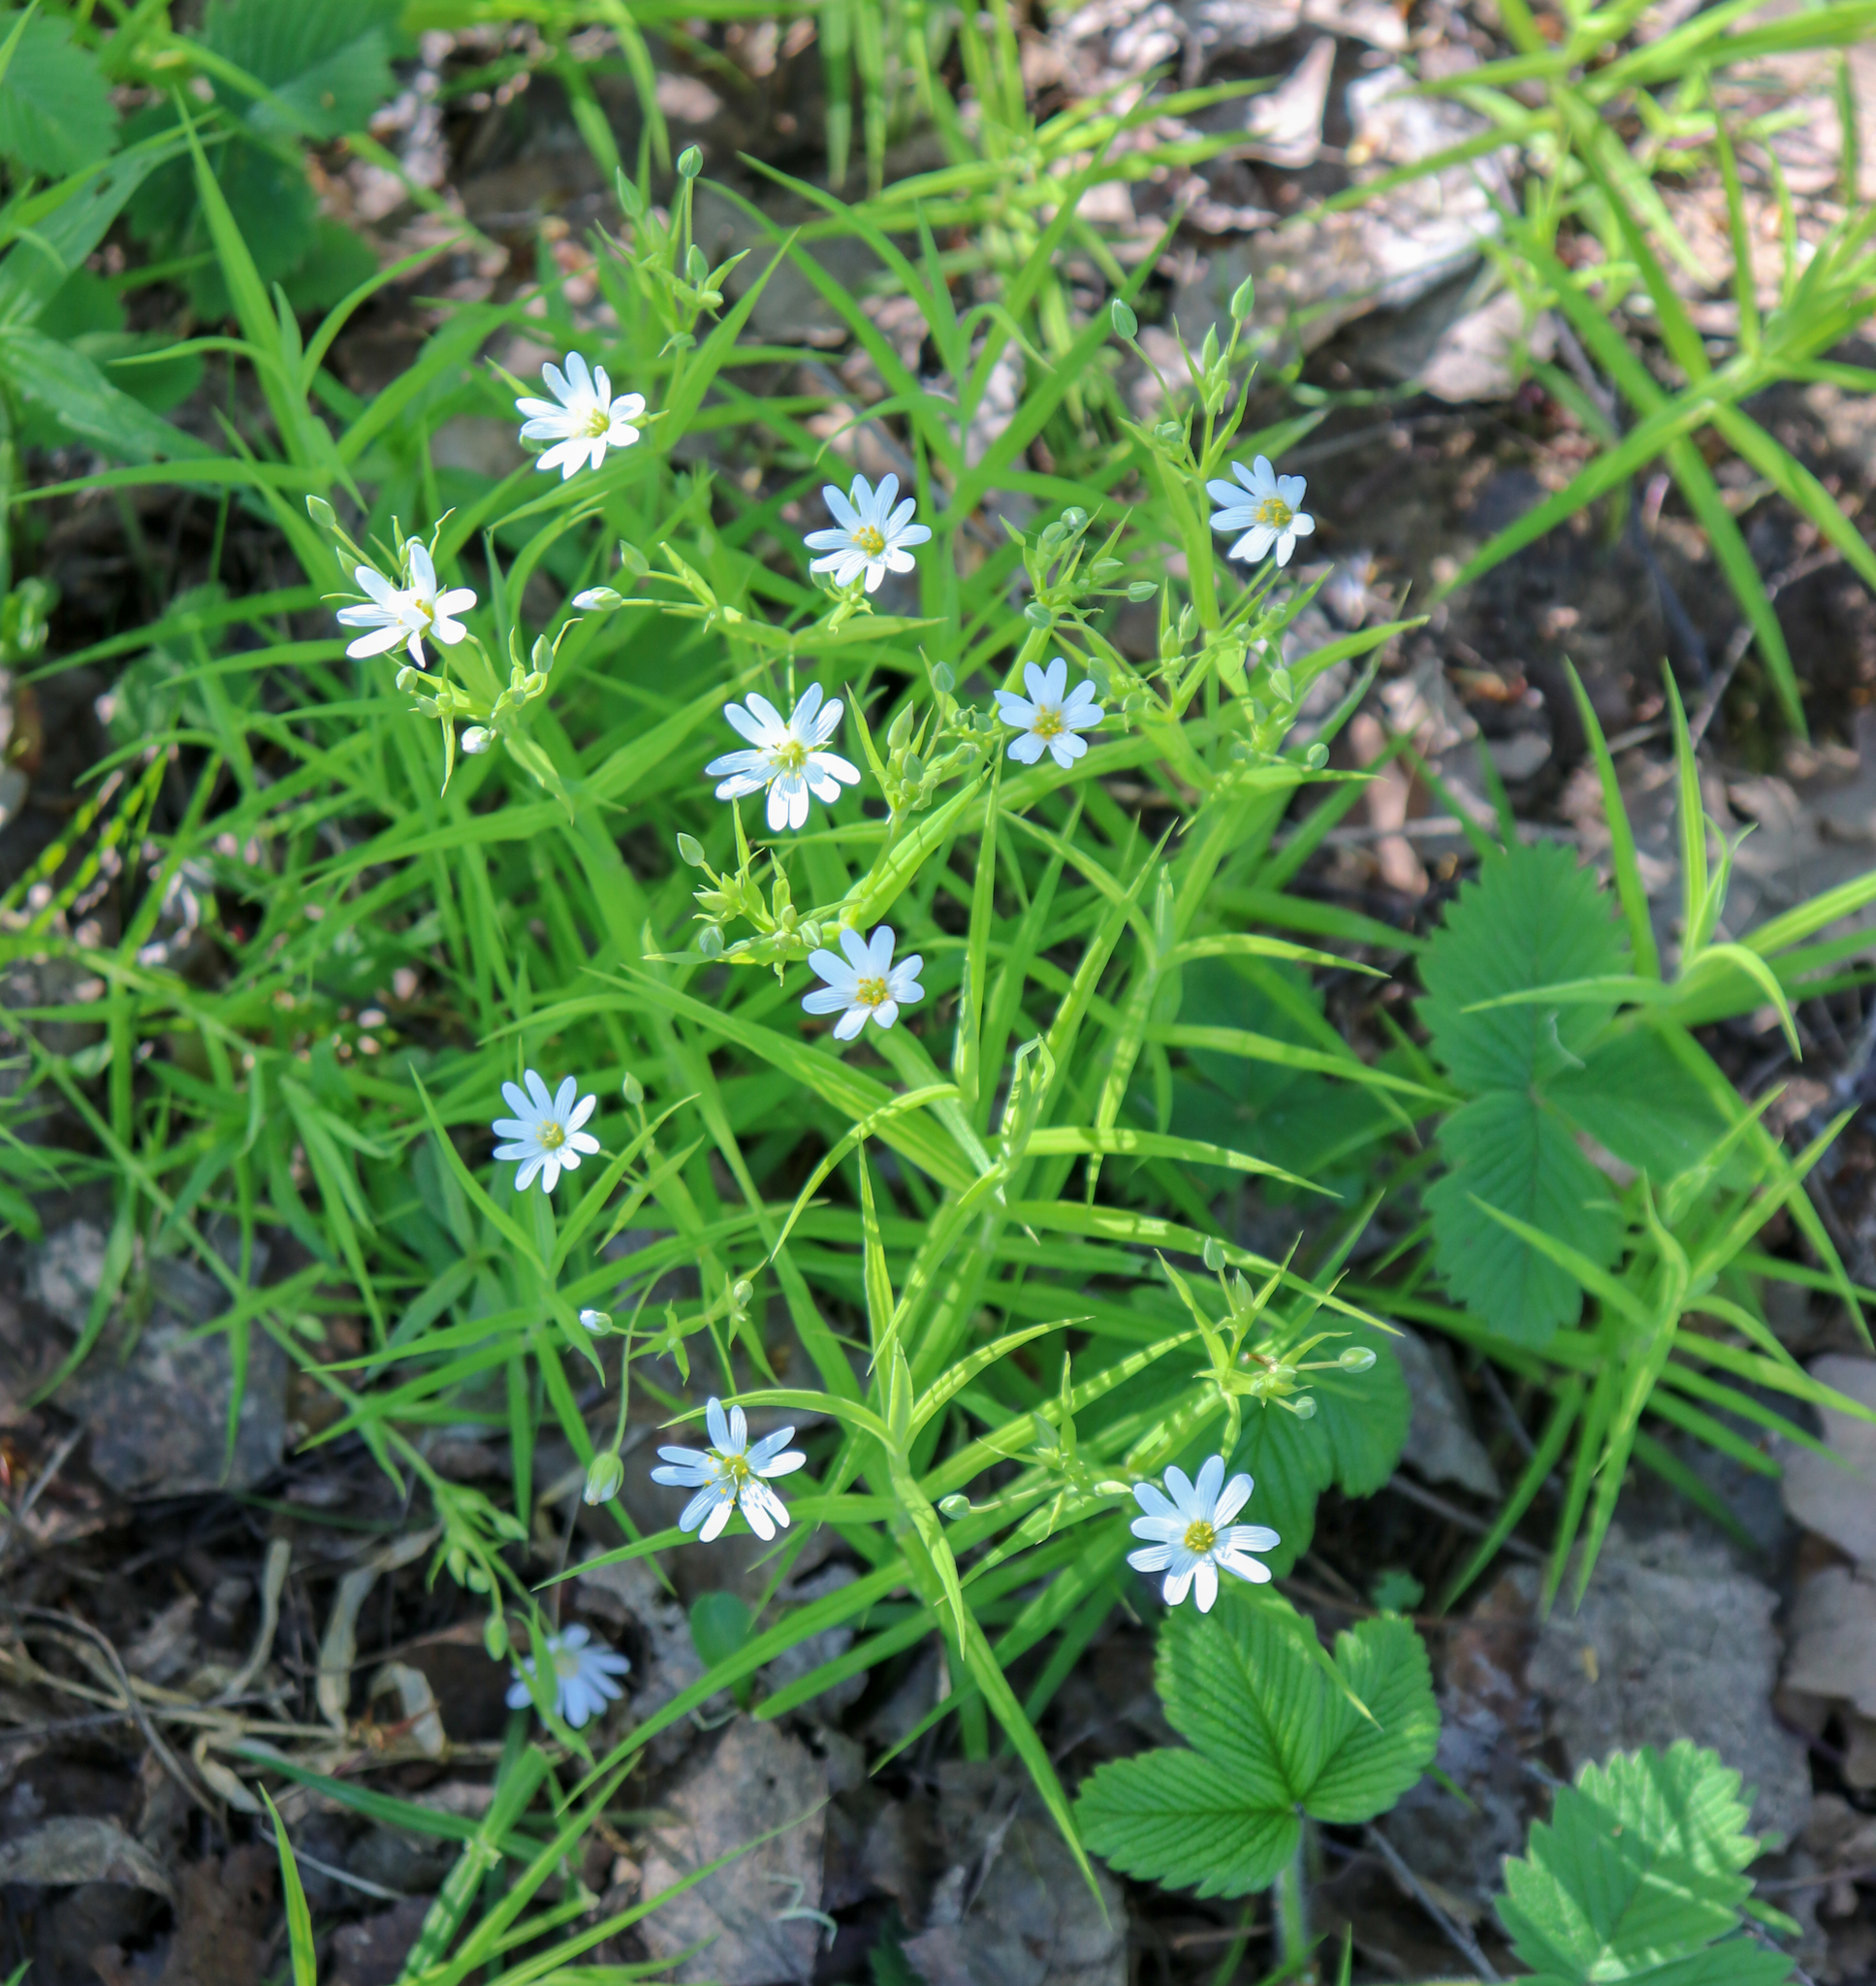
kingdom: Plantae
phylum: Tracheophyta
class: Magnoliopsida
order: Caryophyllales
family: Caryophyllaceae
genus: Rabelera
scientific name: Rabelera holostea
